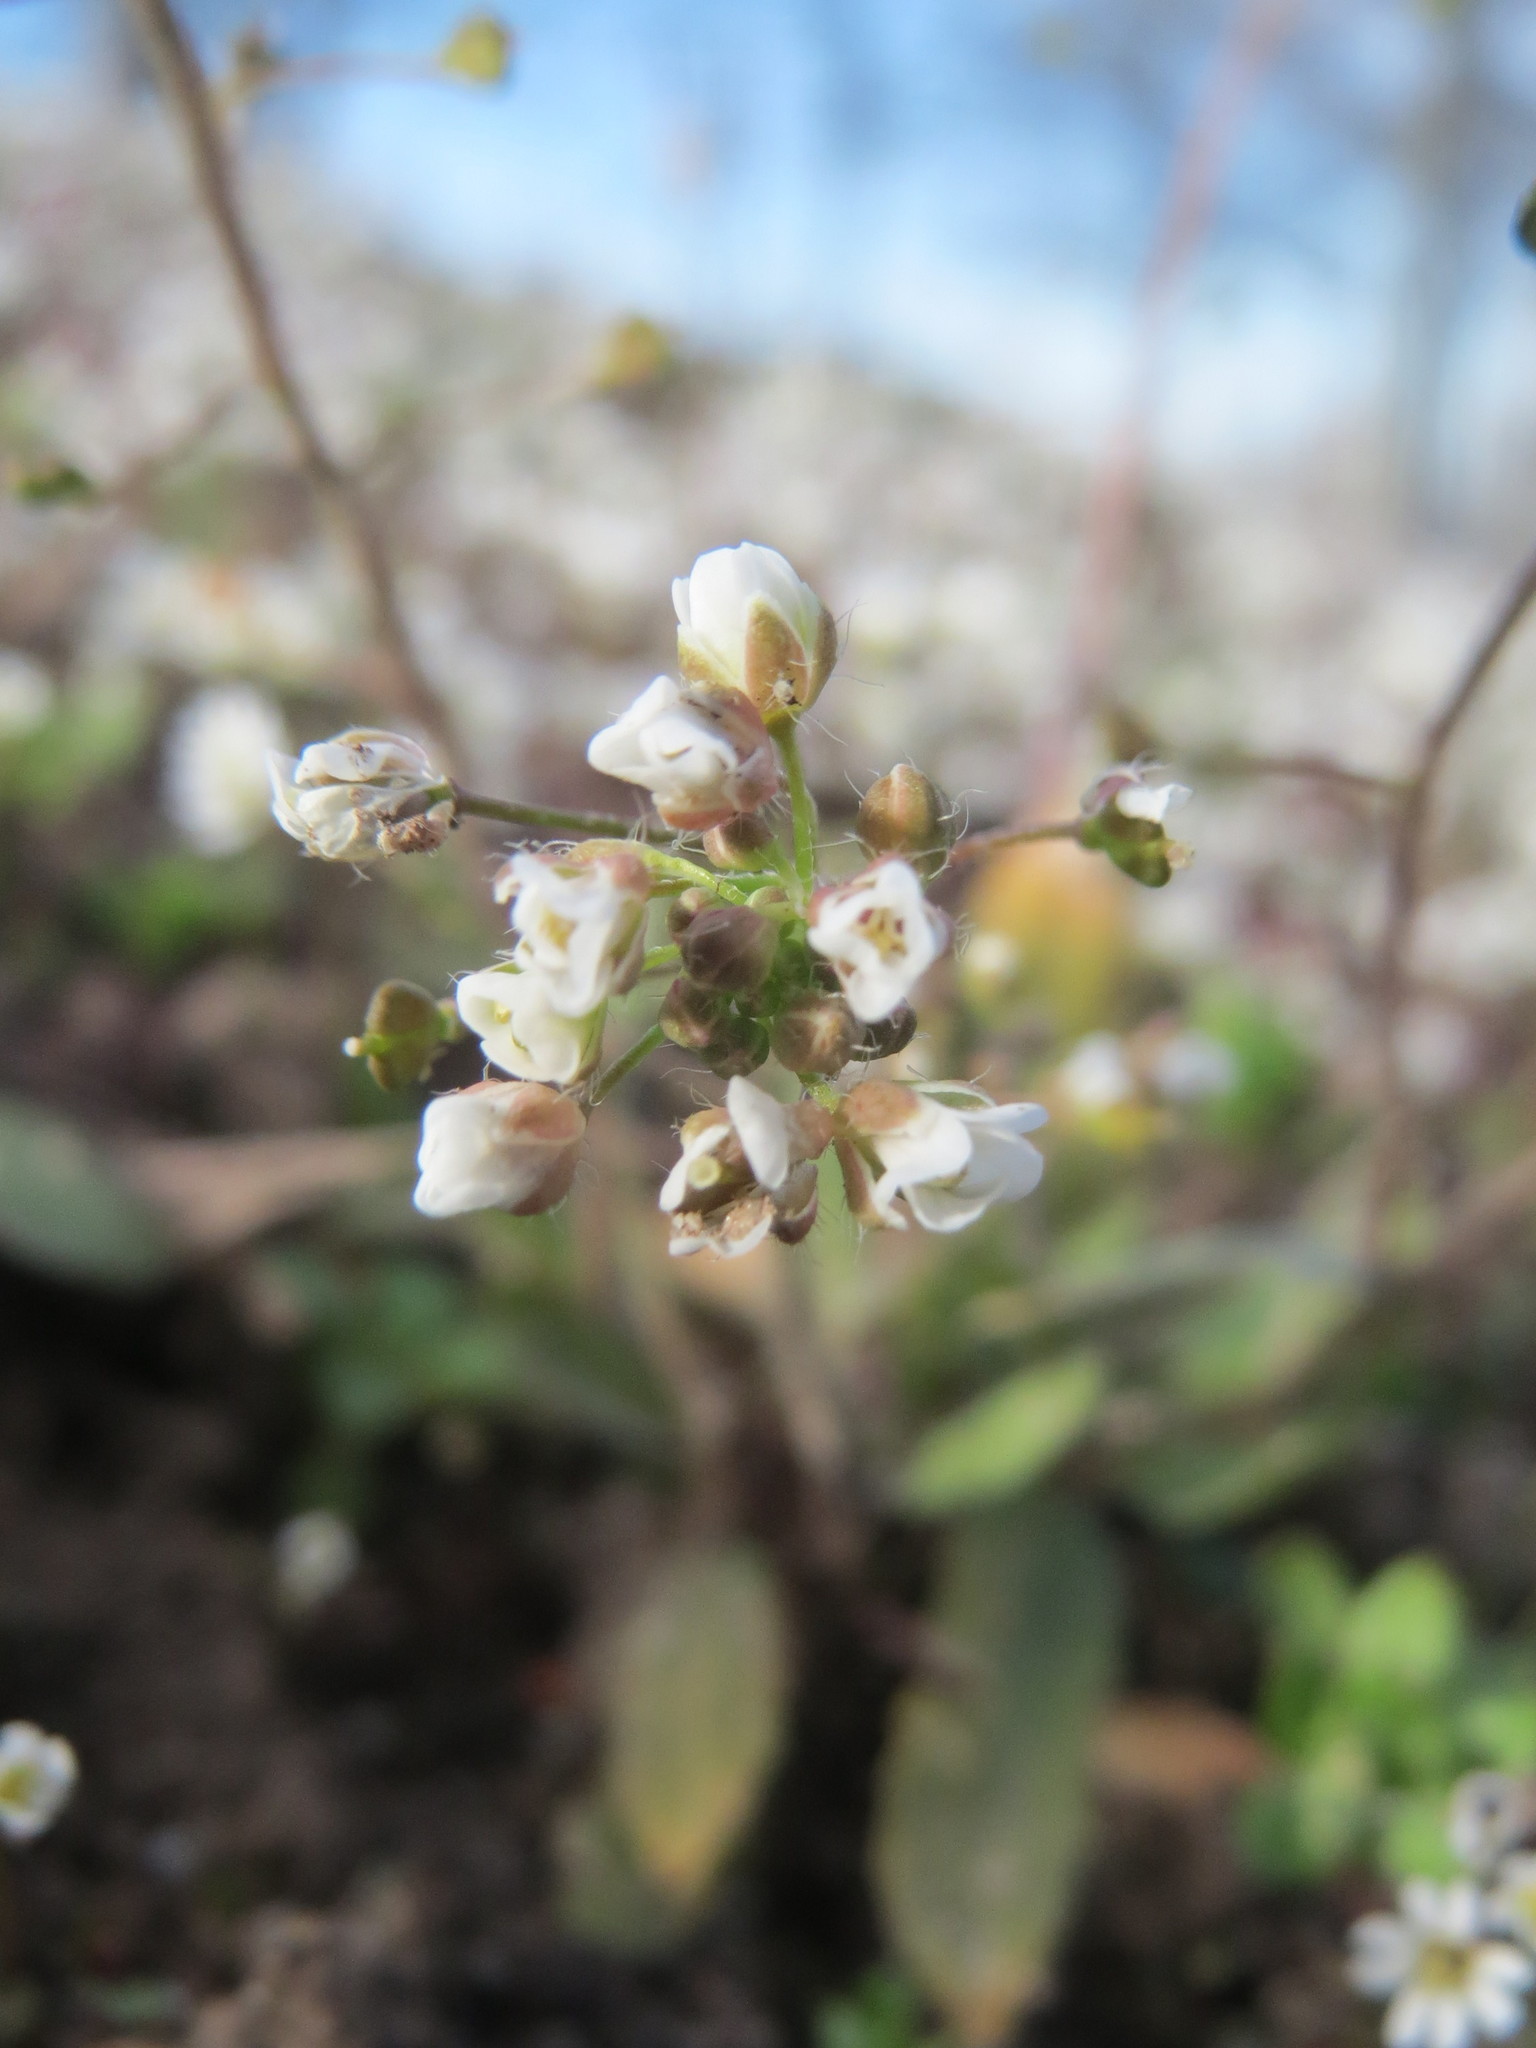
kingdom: Plantae
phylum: Tracheophyta
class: Magnoliopsida
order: Brassicales
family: Brassicaceae
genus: Capsella
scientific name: Capsella bursa-pastoris
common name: Shepherd's purse
